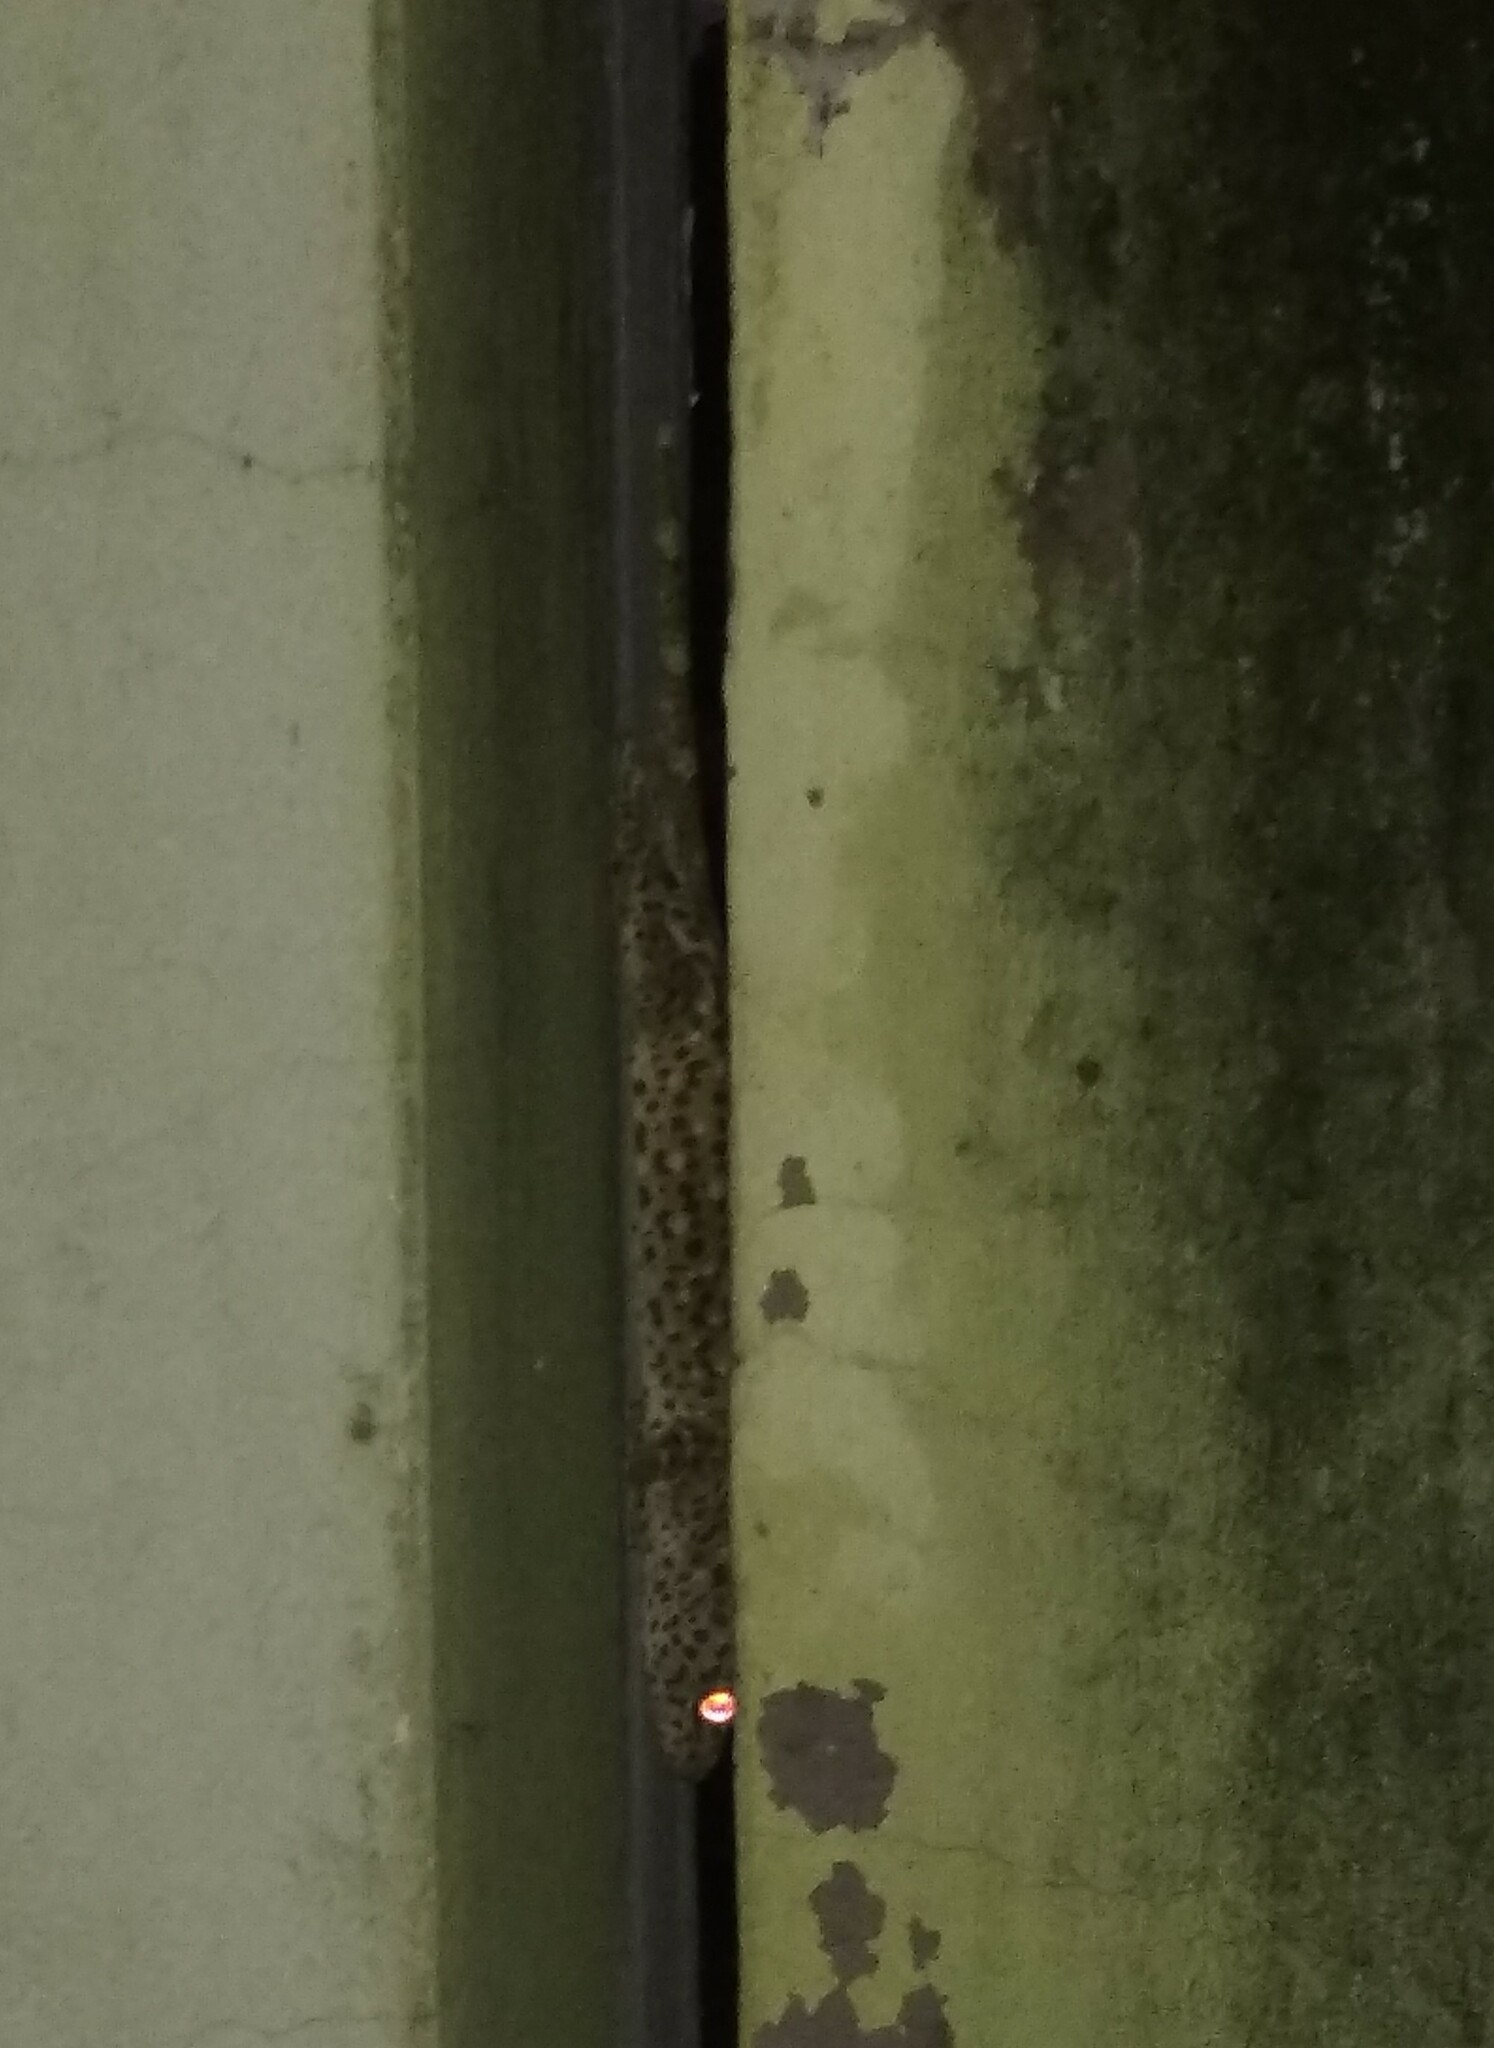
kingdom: Animalia
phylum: Chordata
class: Squamata
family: Gekkonidae
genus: Gekko
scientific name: Gekko gecko
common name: Tokay gecko
